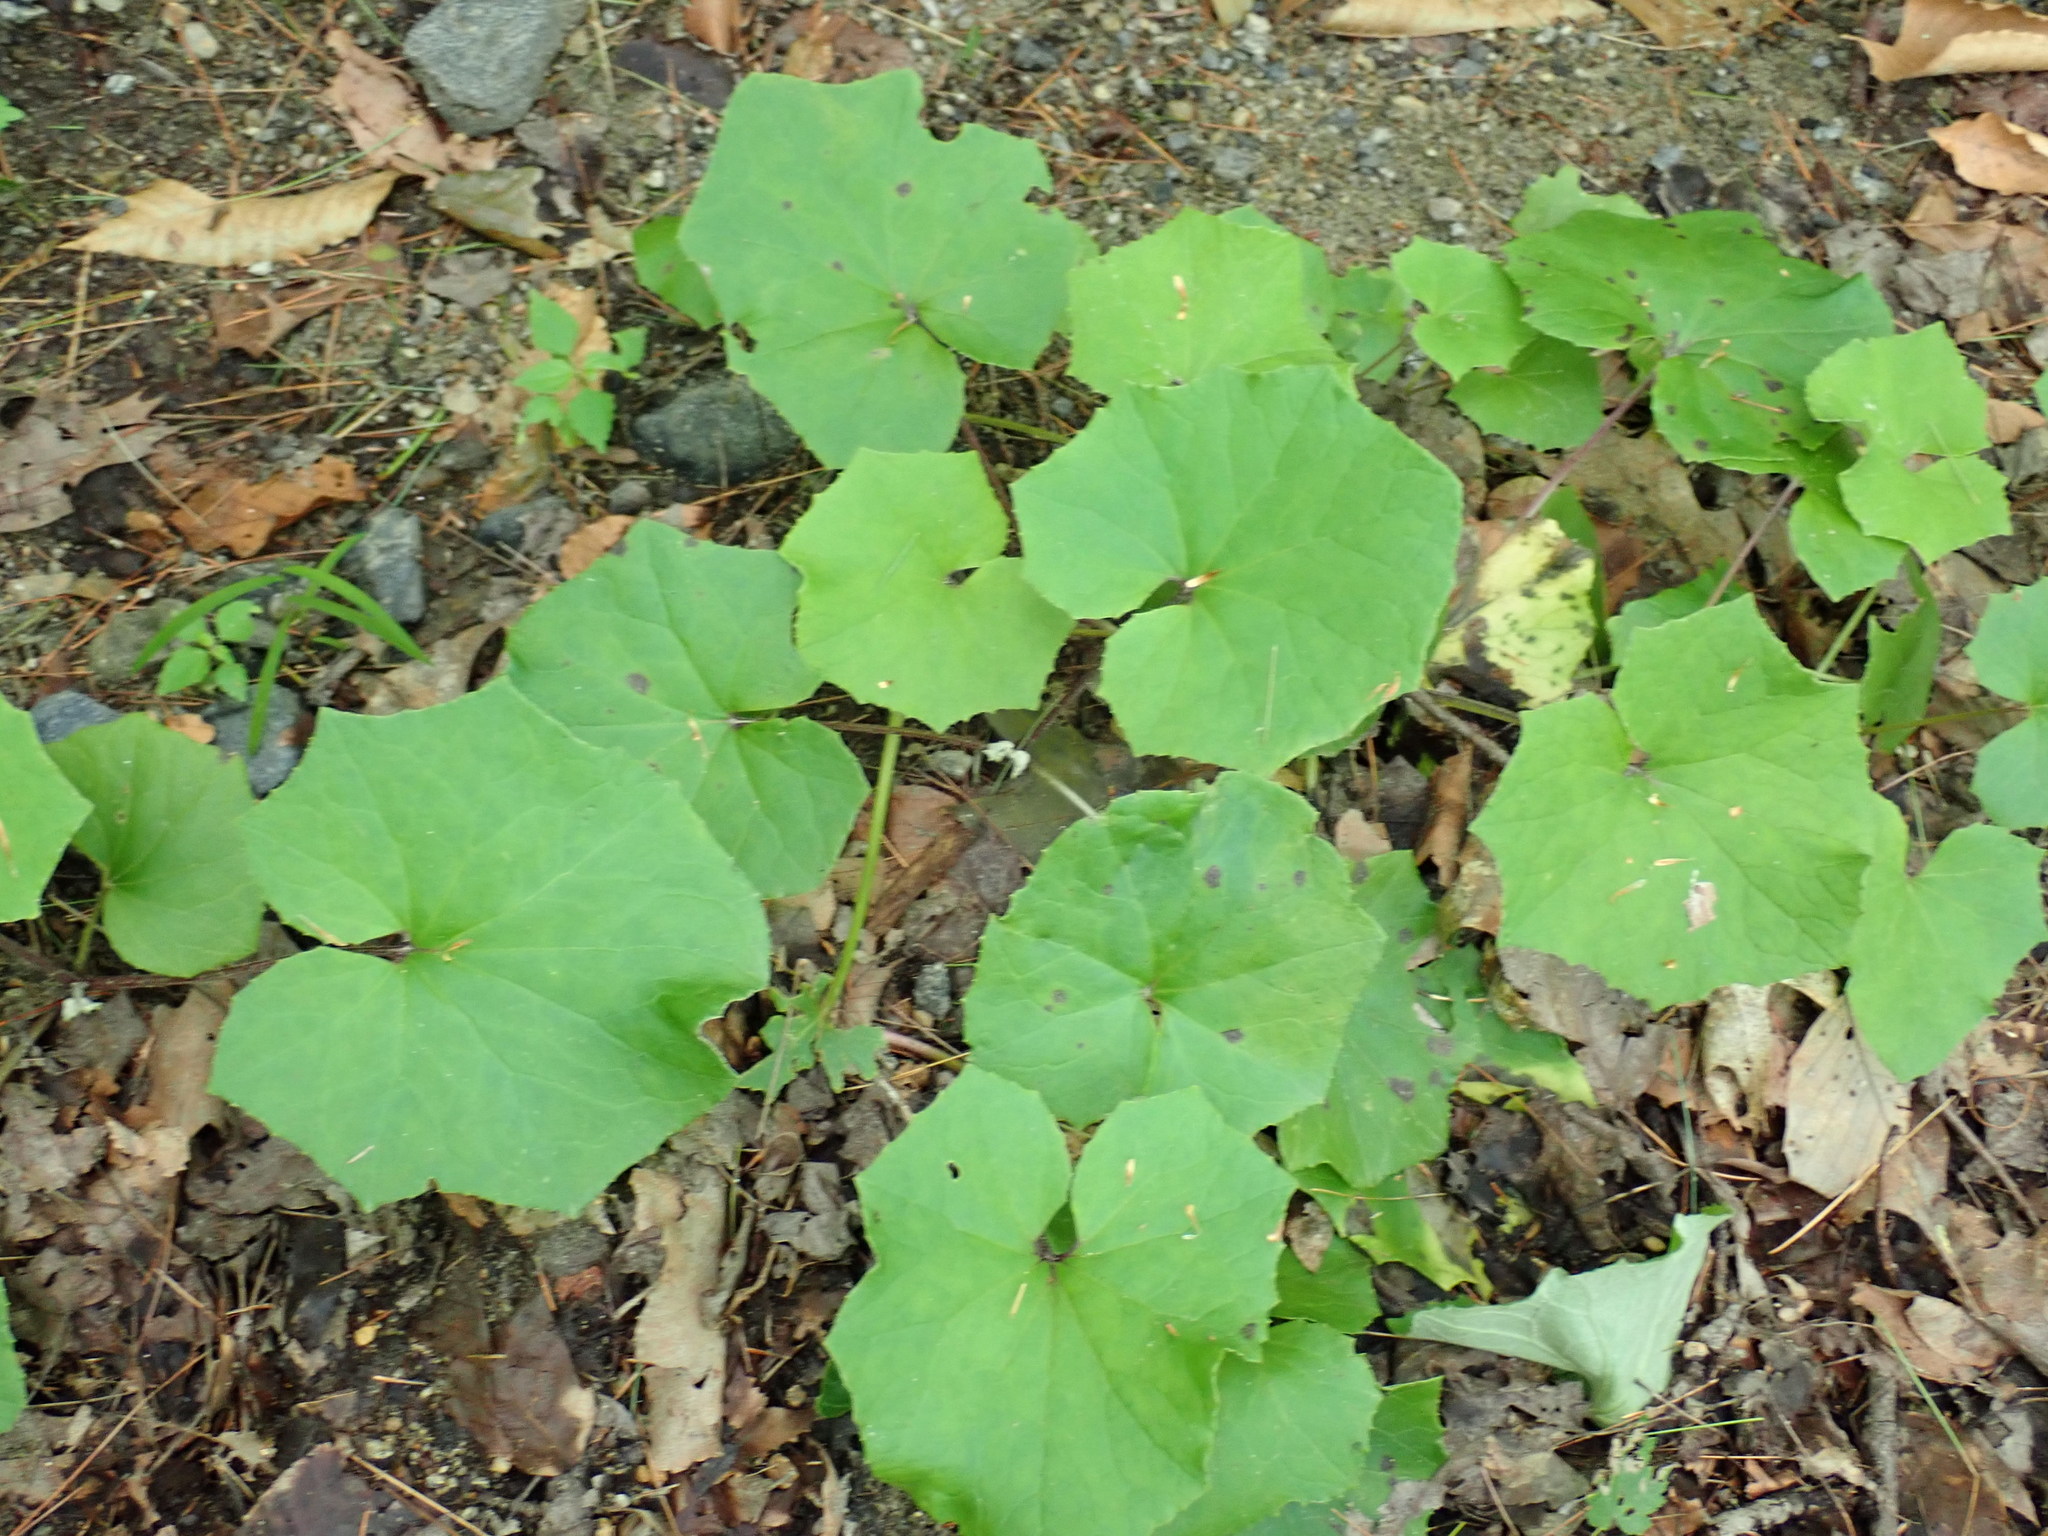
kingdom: Plantae
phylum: Tracheophyta
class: Magnoliopsida
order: Asterales
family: Asteraceae
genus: Tussilago
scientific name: Tussilago farfara
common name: Coltsfoot
